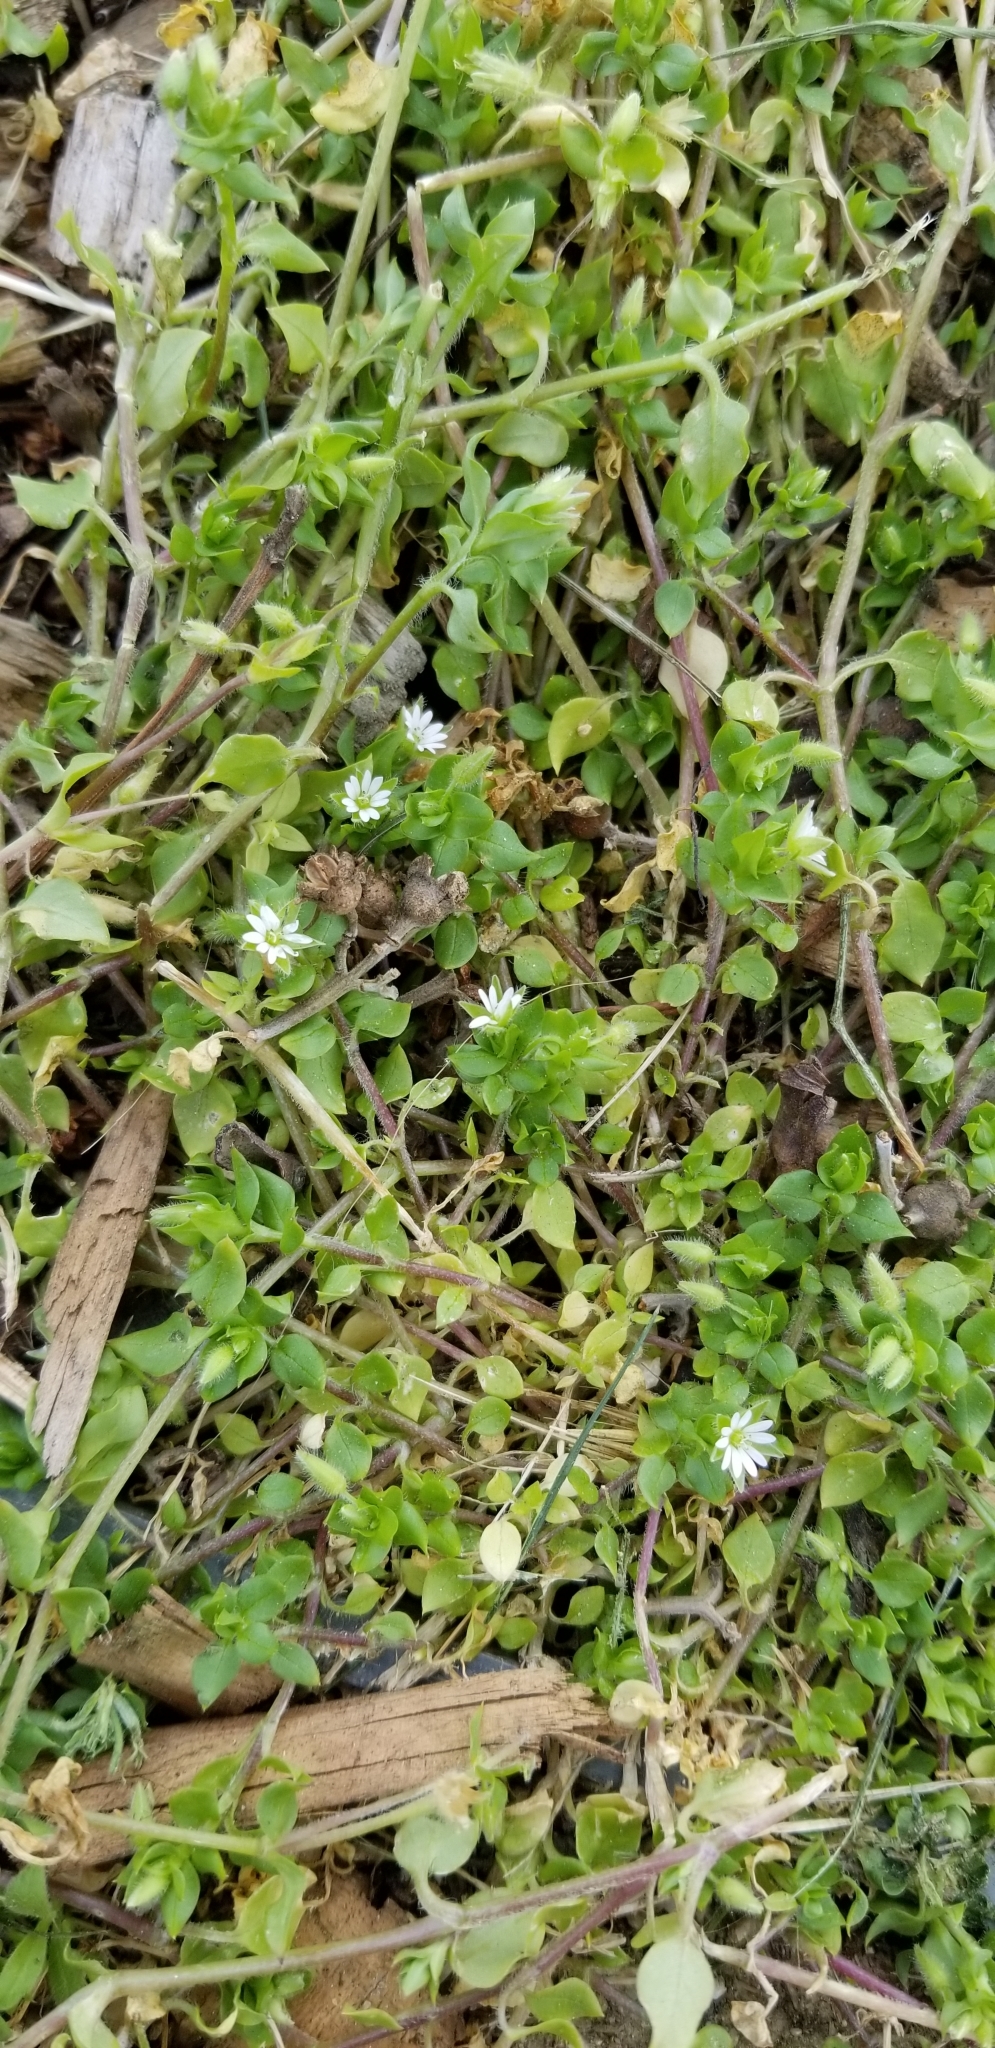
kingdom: Plantae
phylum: Tracheophyta
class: Magnoliopsida
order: Caryophyllales
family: Caryophyllaceae
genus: Stellaria
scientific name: Stellaria media
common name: Common chickweed
